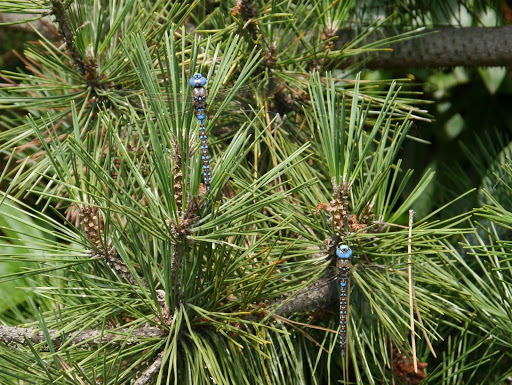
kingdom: Animalia
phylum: Arthropoda
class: Insecta
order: Odonata
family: Aeshnidae
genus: Rhionaeschna
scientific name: Rhionaeschna multicolor
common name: Blue-eyed darner
